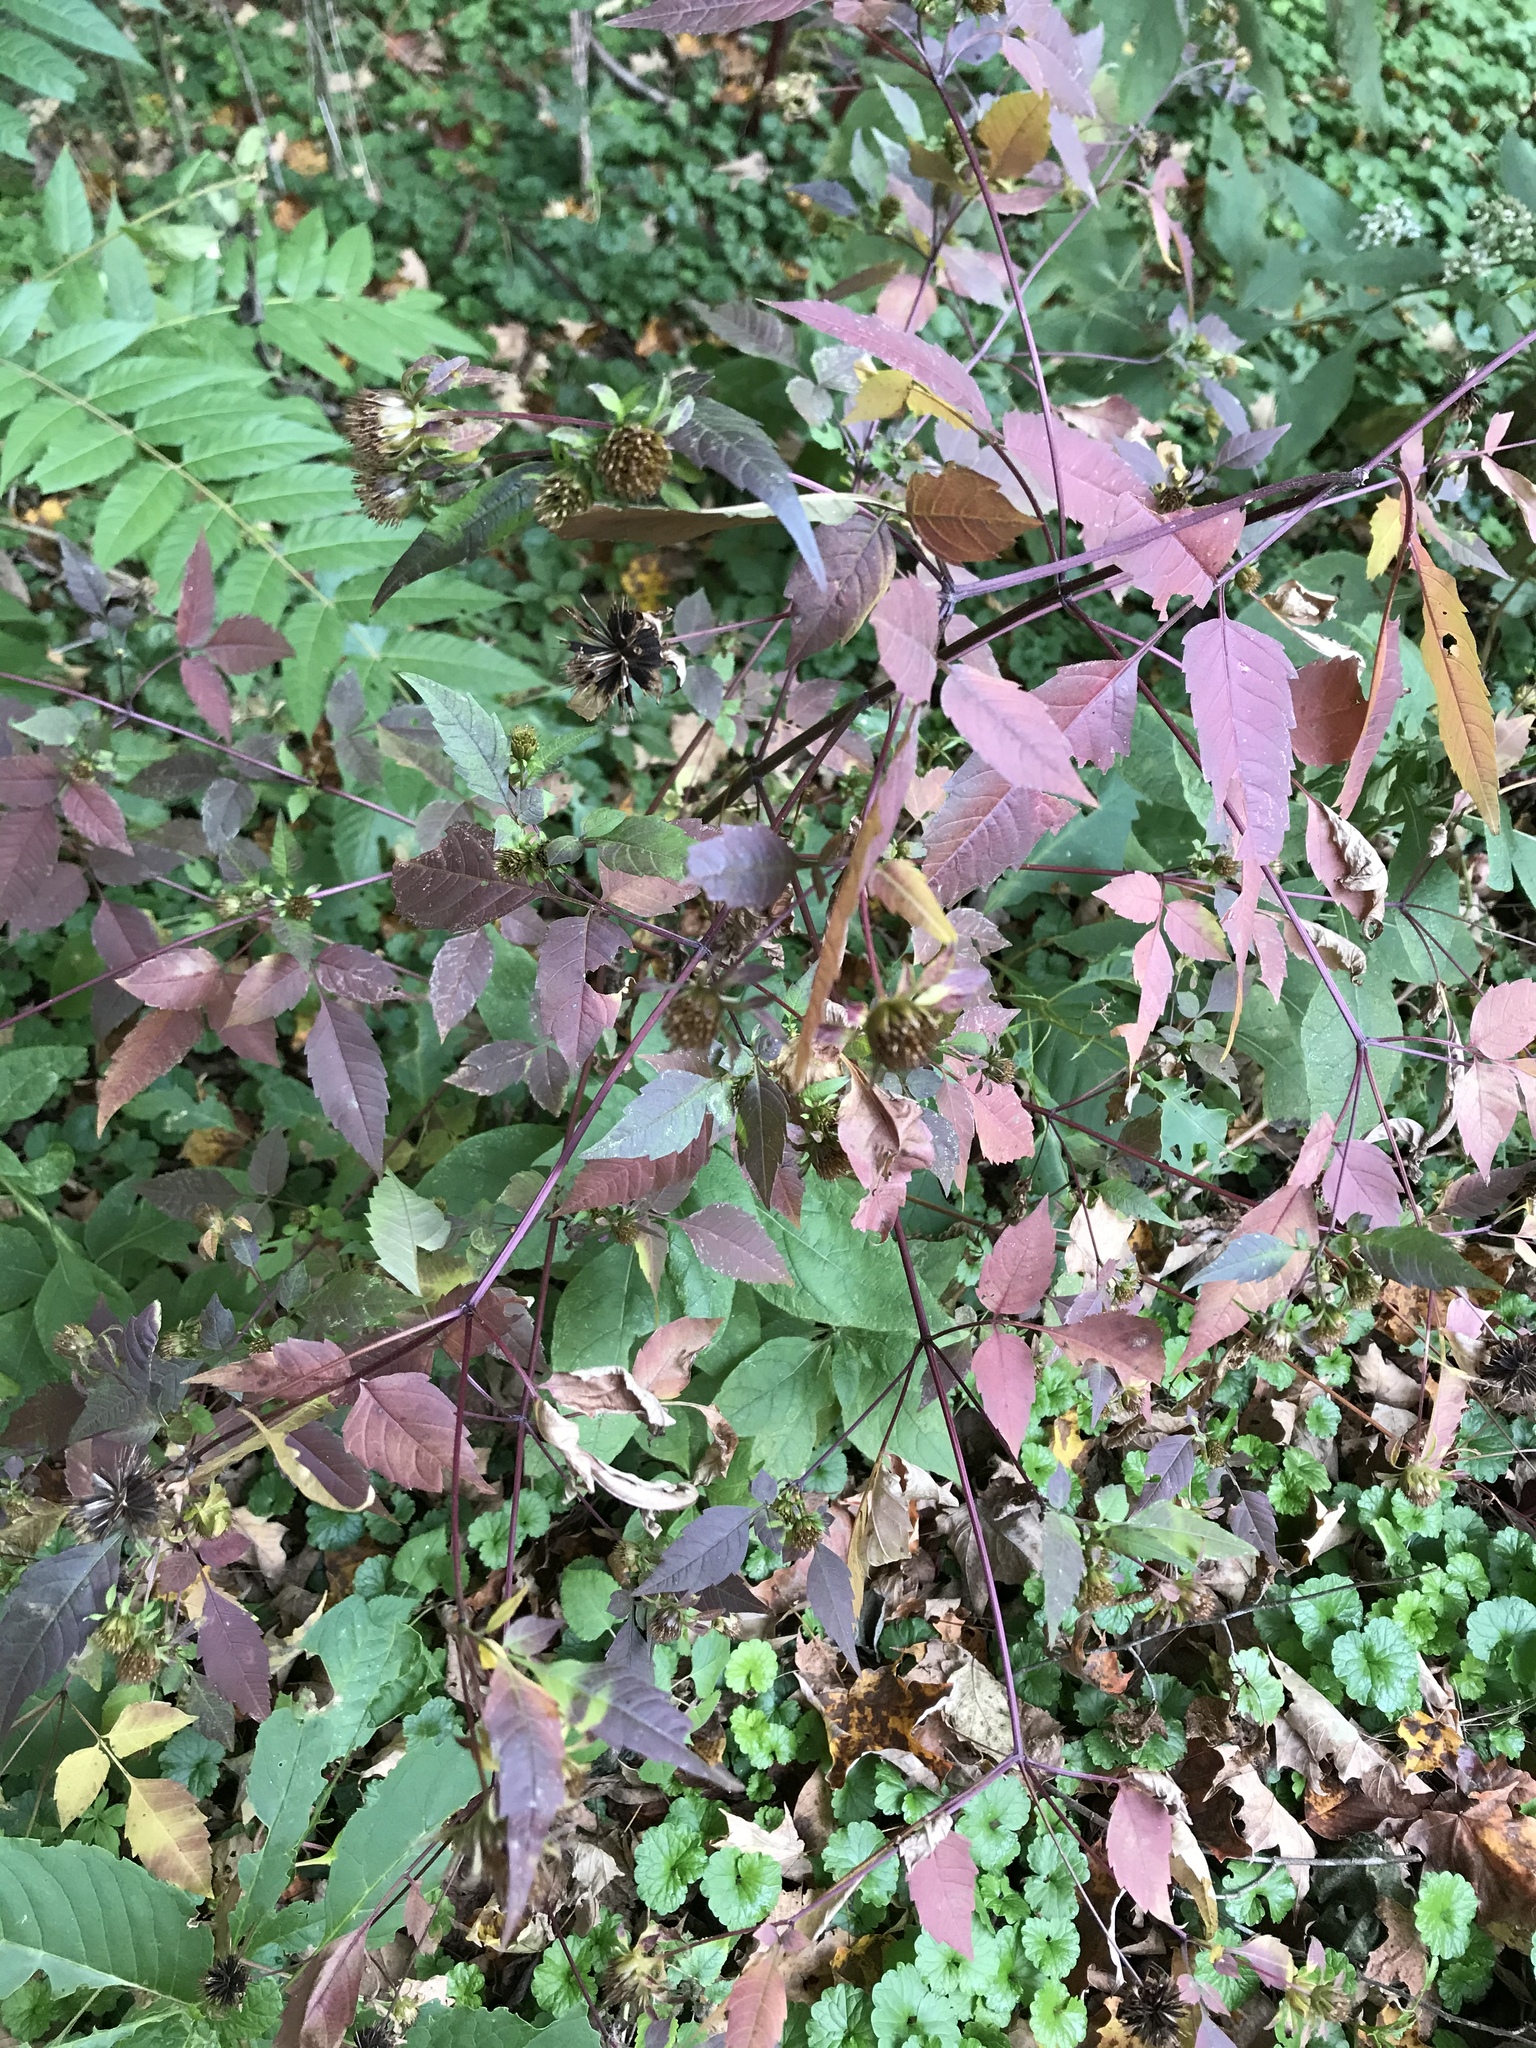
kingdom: Plantae
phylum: Tracheophyta
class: Magnoliopsida
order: Asterales
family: Asteraceae
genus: Bidens
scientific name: Bidens frondosa
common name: Beggarticks
